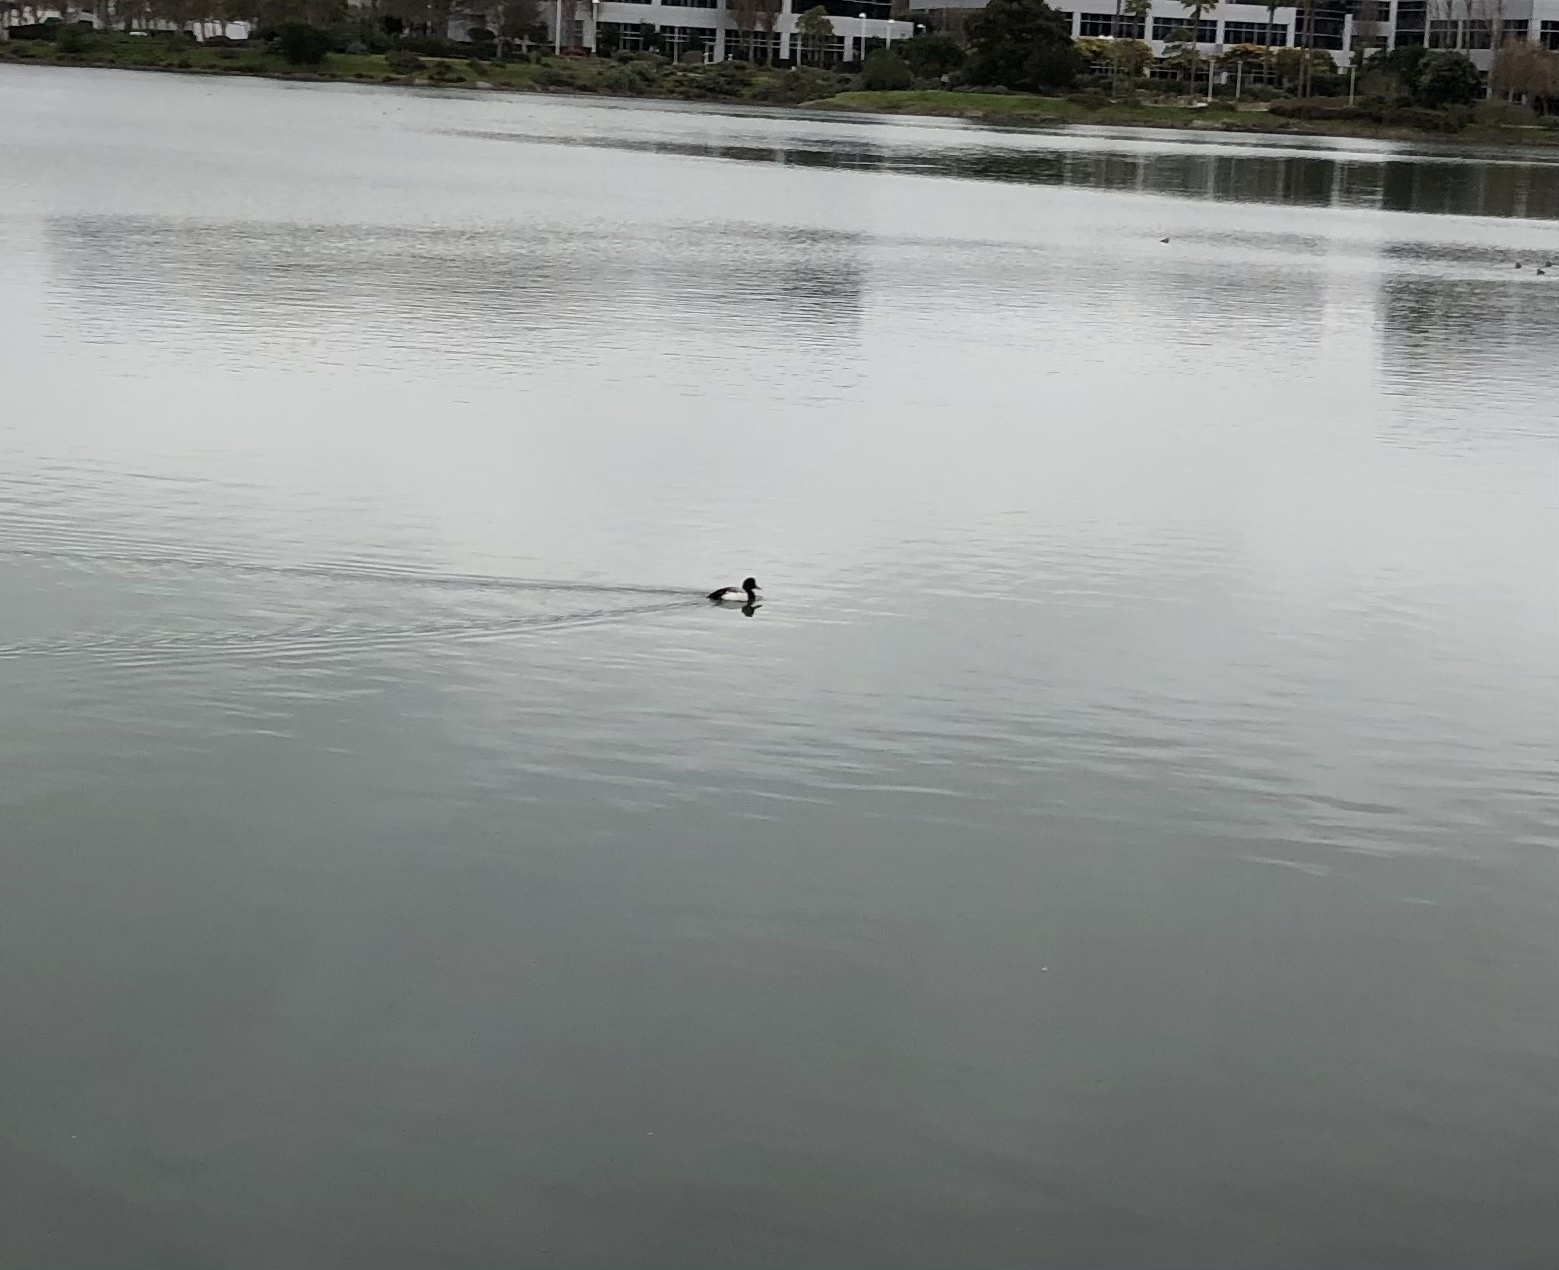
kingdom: Animalia
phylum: Chordata
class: Aves
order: Anseriformes
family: Anatidae
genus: Aythya
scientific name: Aythya marila
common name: Greater scaup
